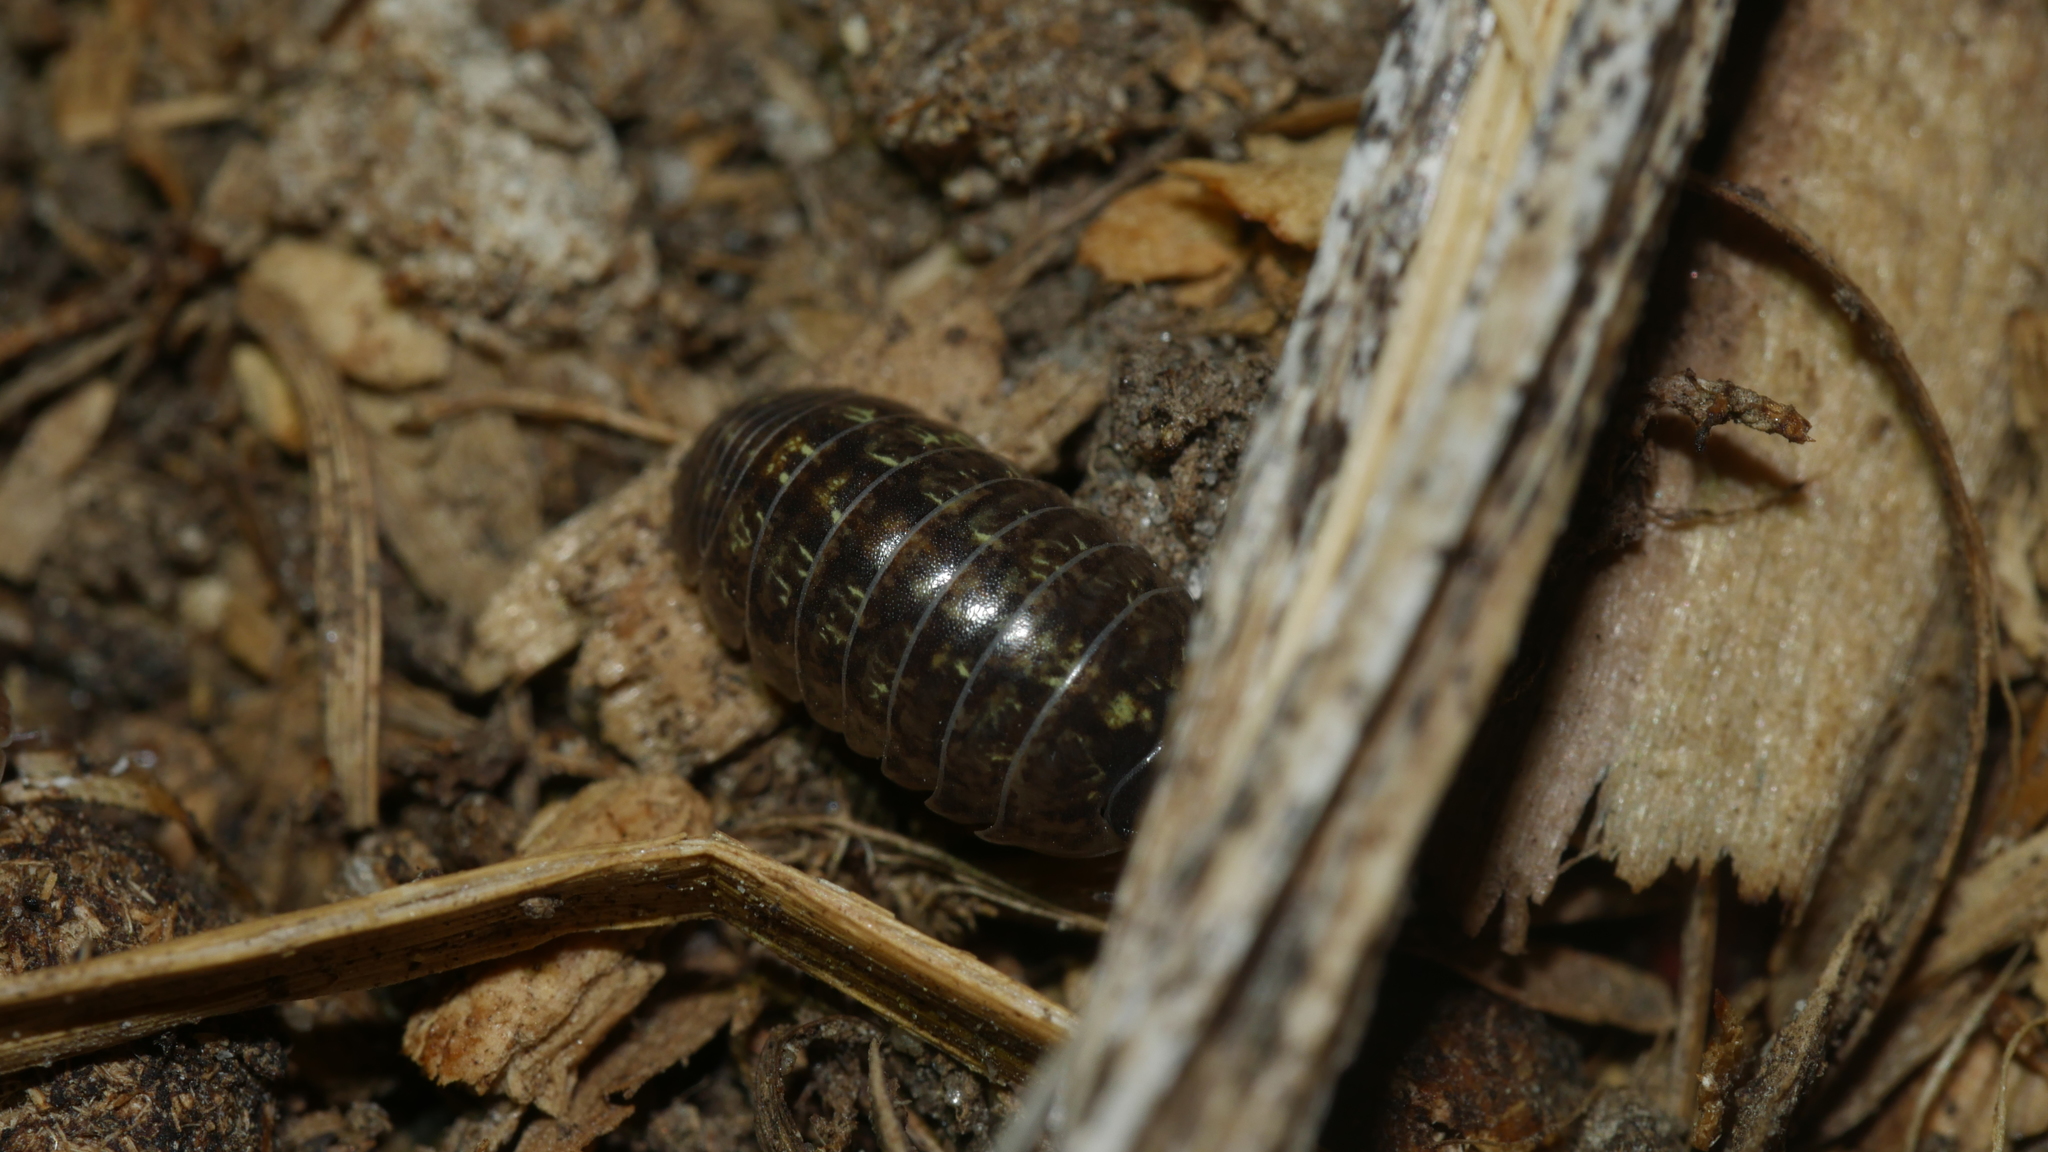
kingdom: Animalia
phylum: Arthropoda
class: Malacostraca
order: Isopoda
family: Armadillidiidae
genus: Armadillidium
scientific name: Armadillidium vulgare
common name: Common pill woodlouse
